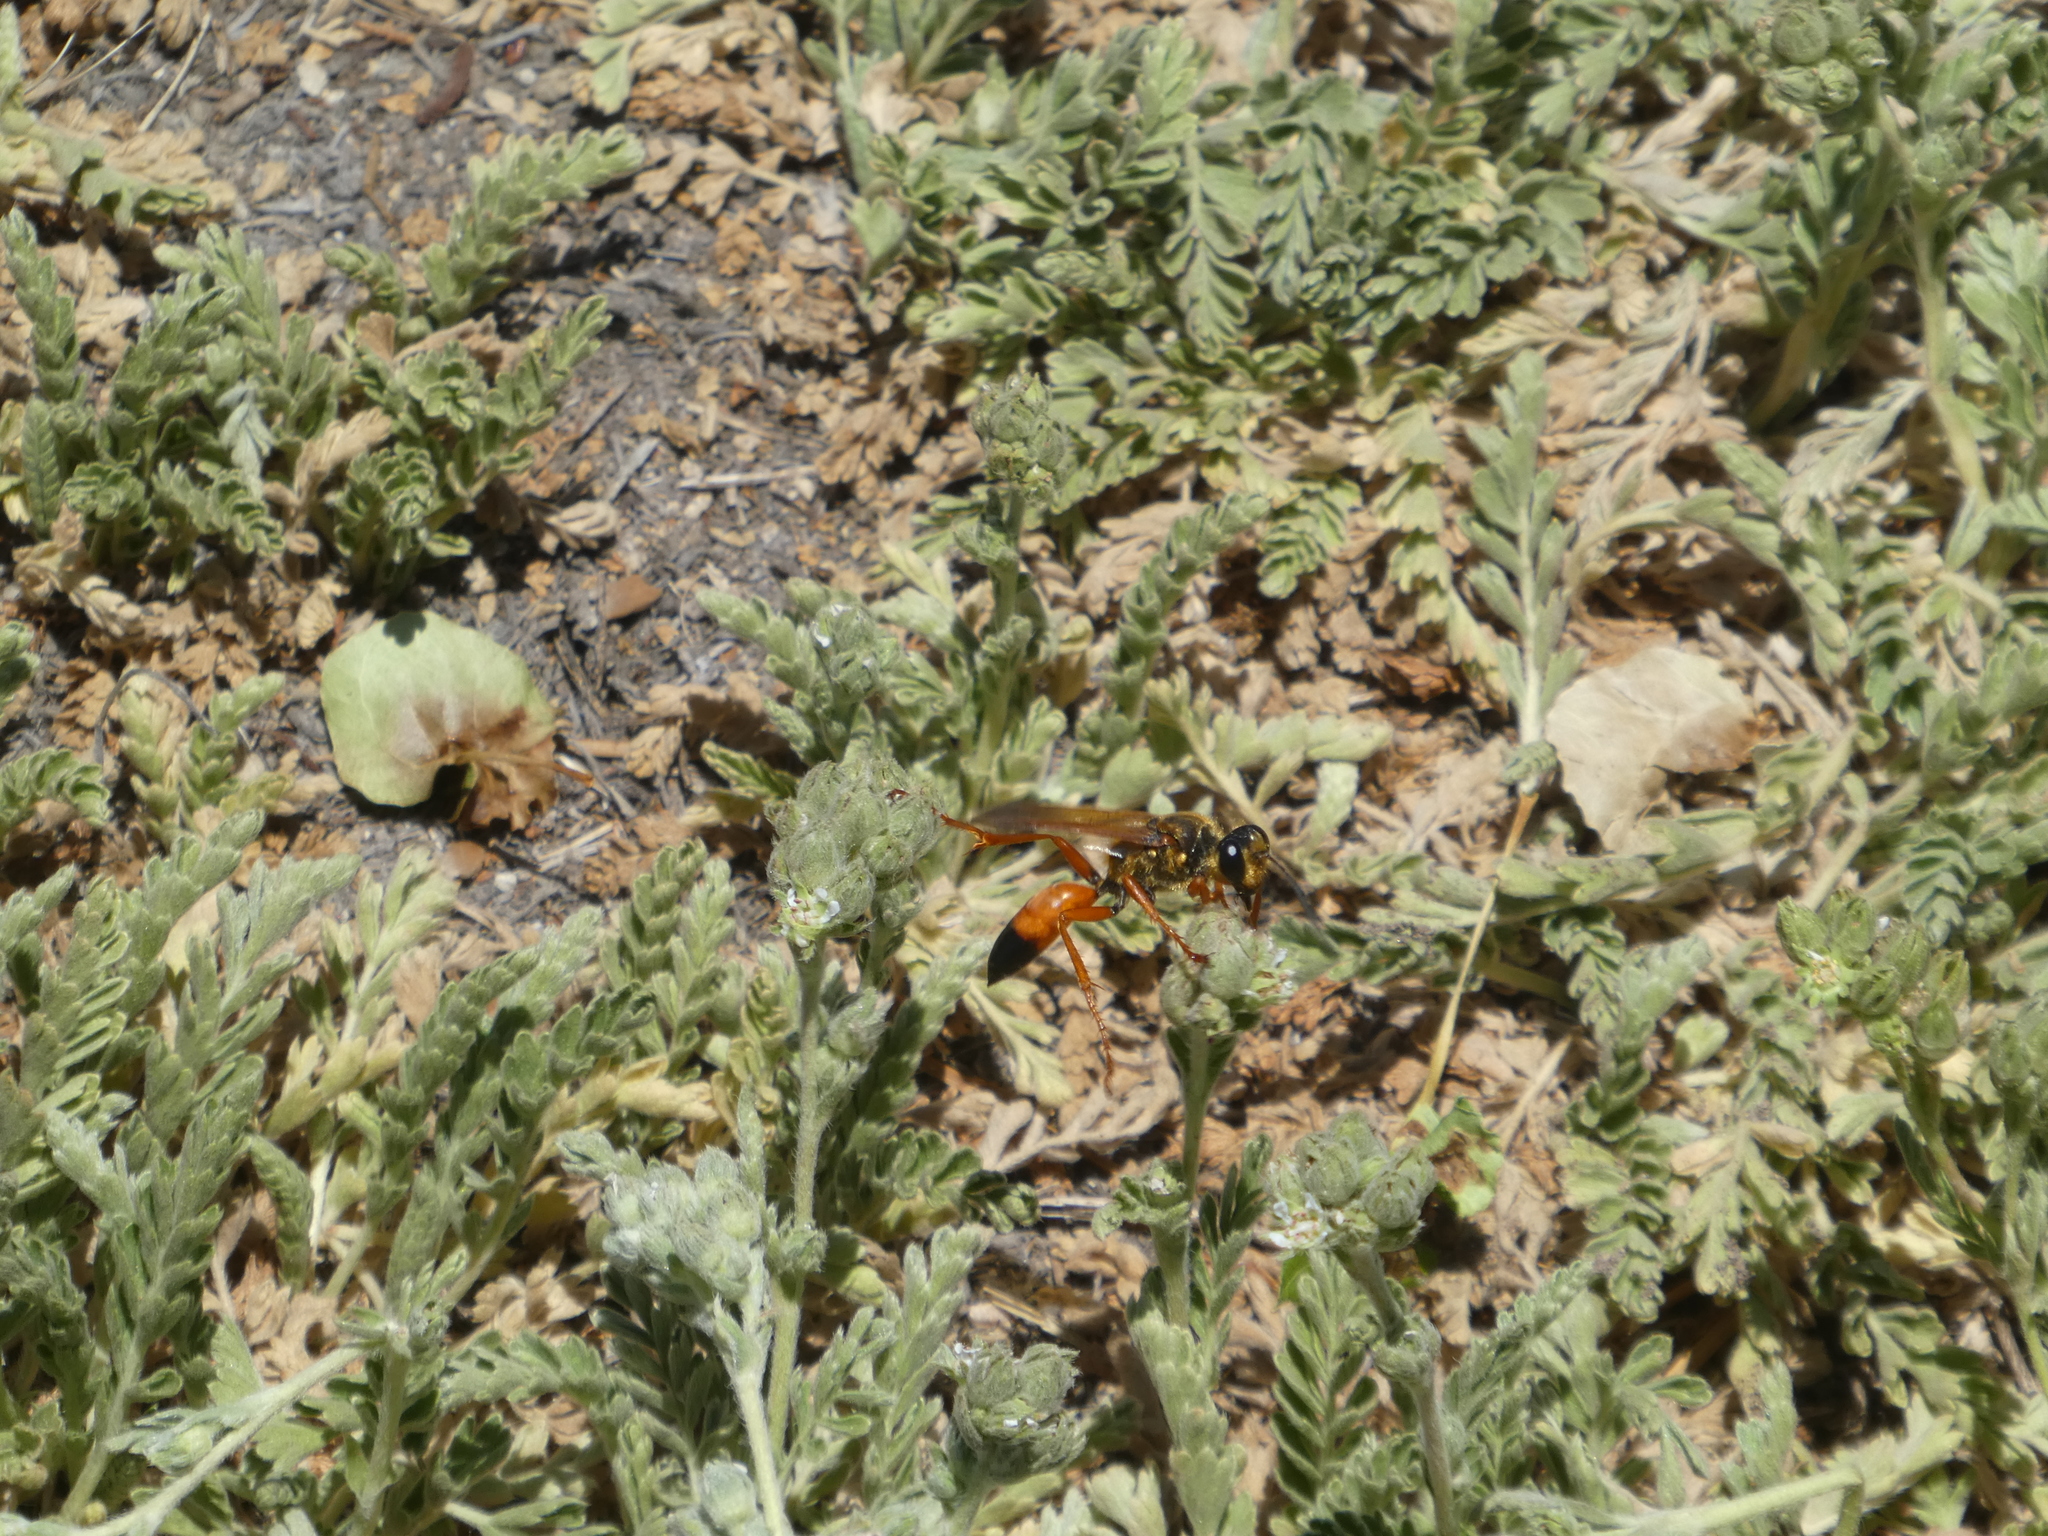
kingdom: Animalia
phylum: Arthropoda
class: Insecta
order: Hymenoptera
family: Sphecidae
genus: Sphex
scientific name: Sphex ichneumoneus
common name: Great golden digger wasp
